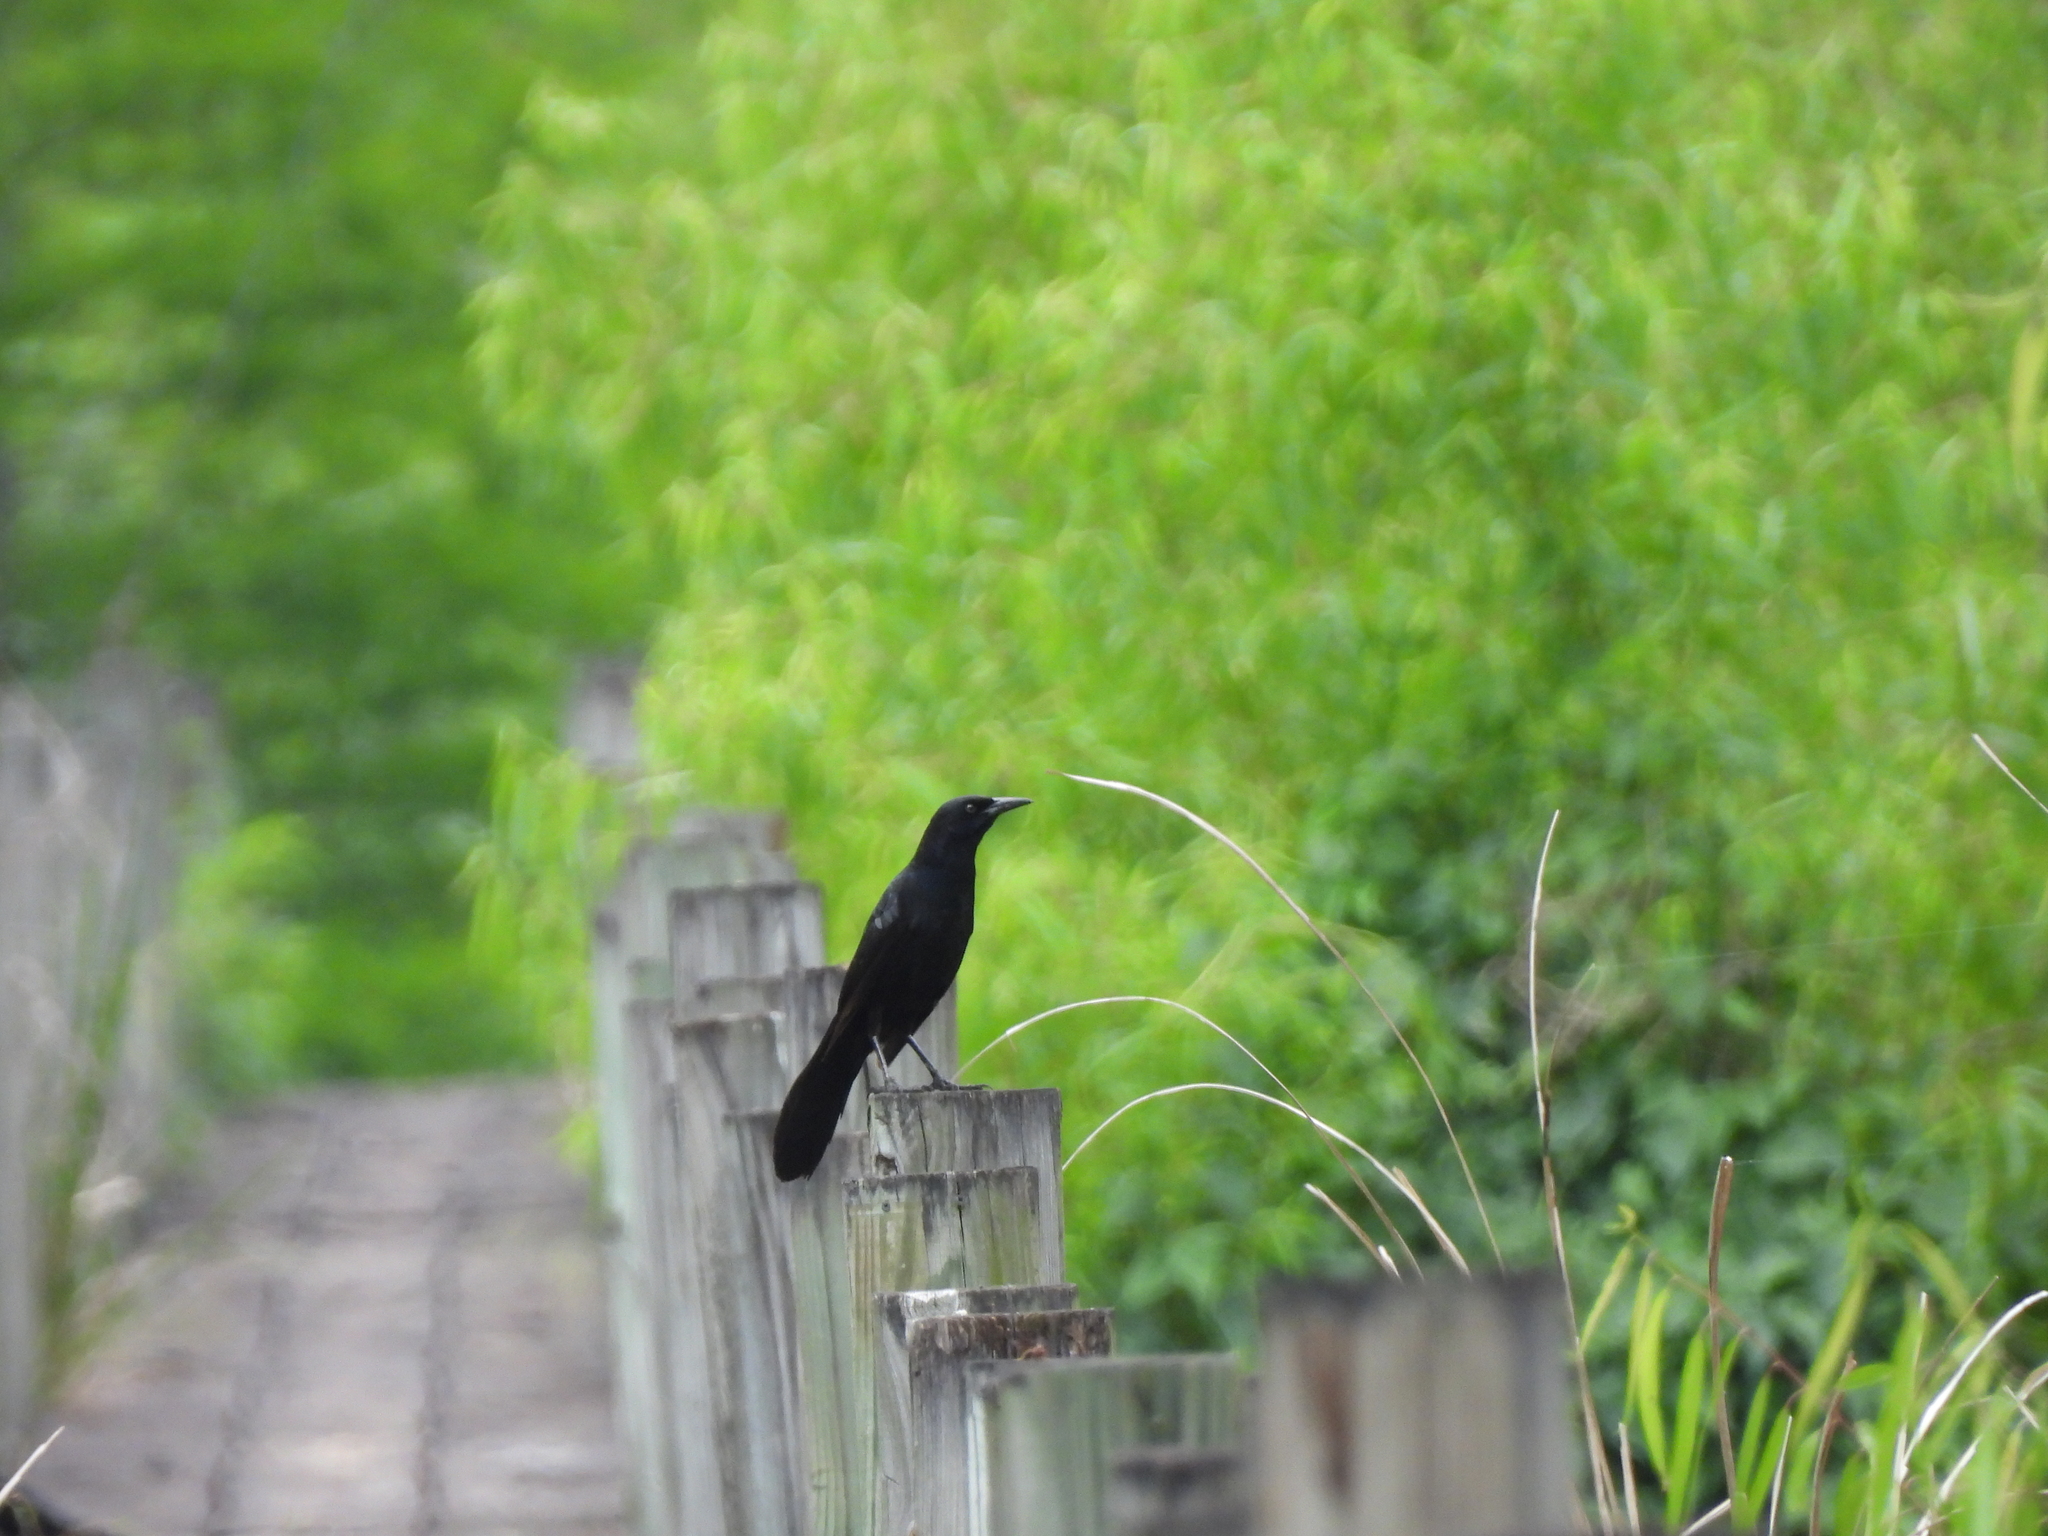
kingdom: Animalia
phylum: Chordata
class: Aves
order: Passeriformes
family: Icteridae
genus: Quiscalus
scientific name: Quiscalus major
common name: Boat-tailed grackle
